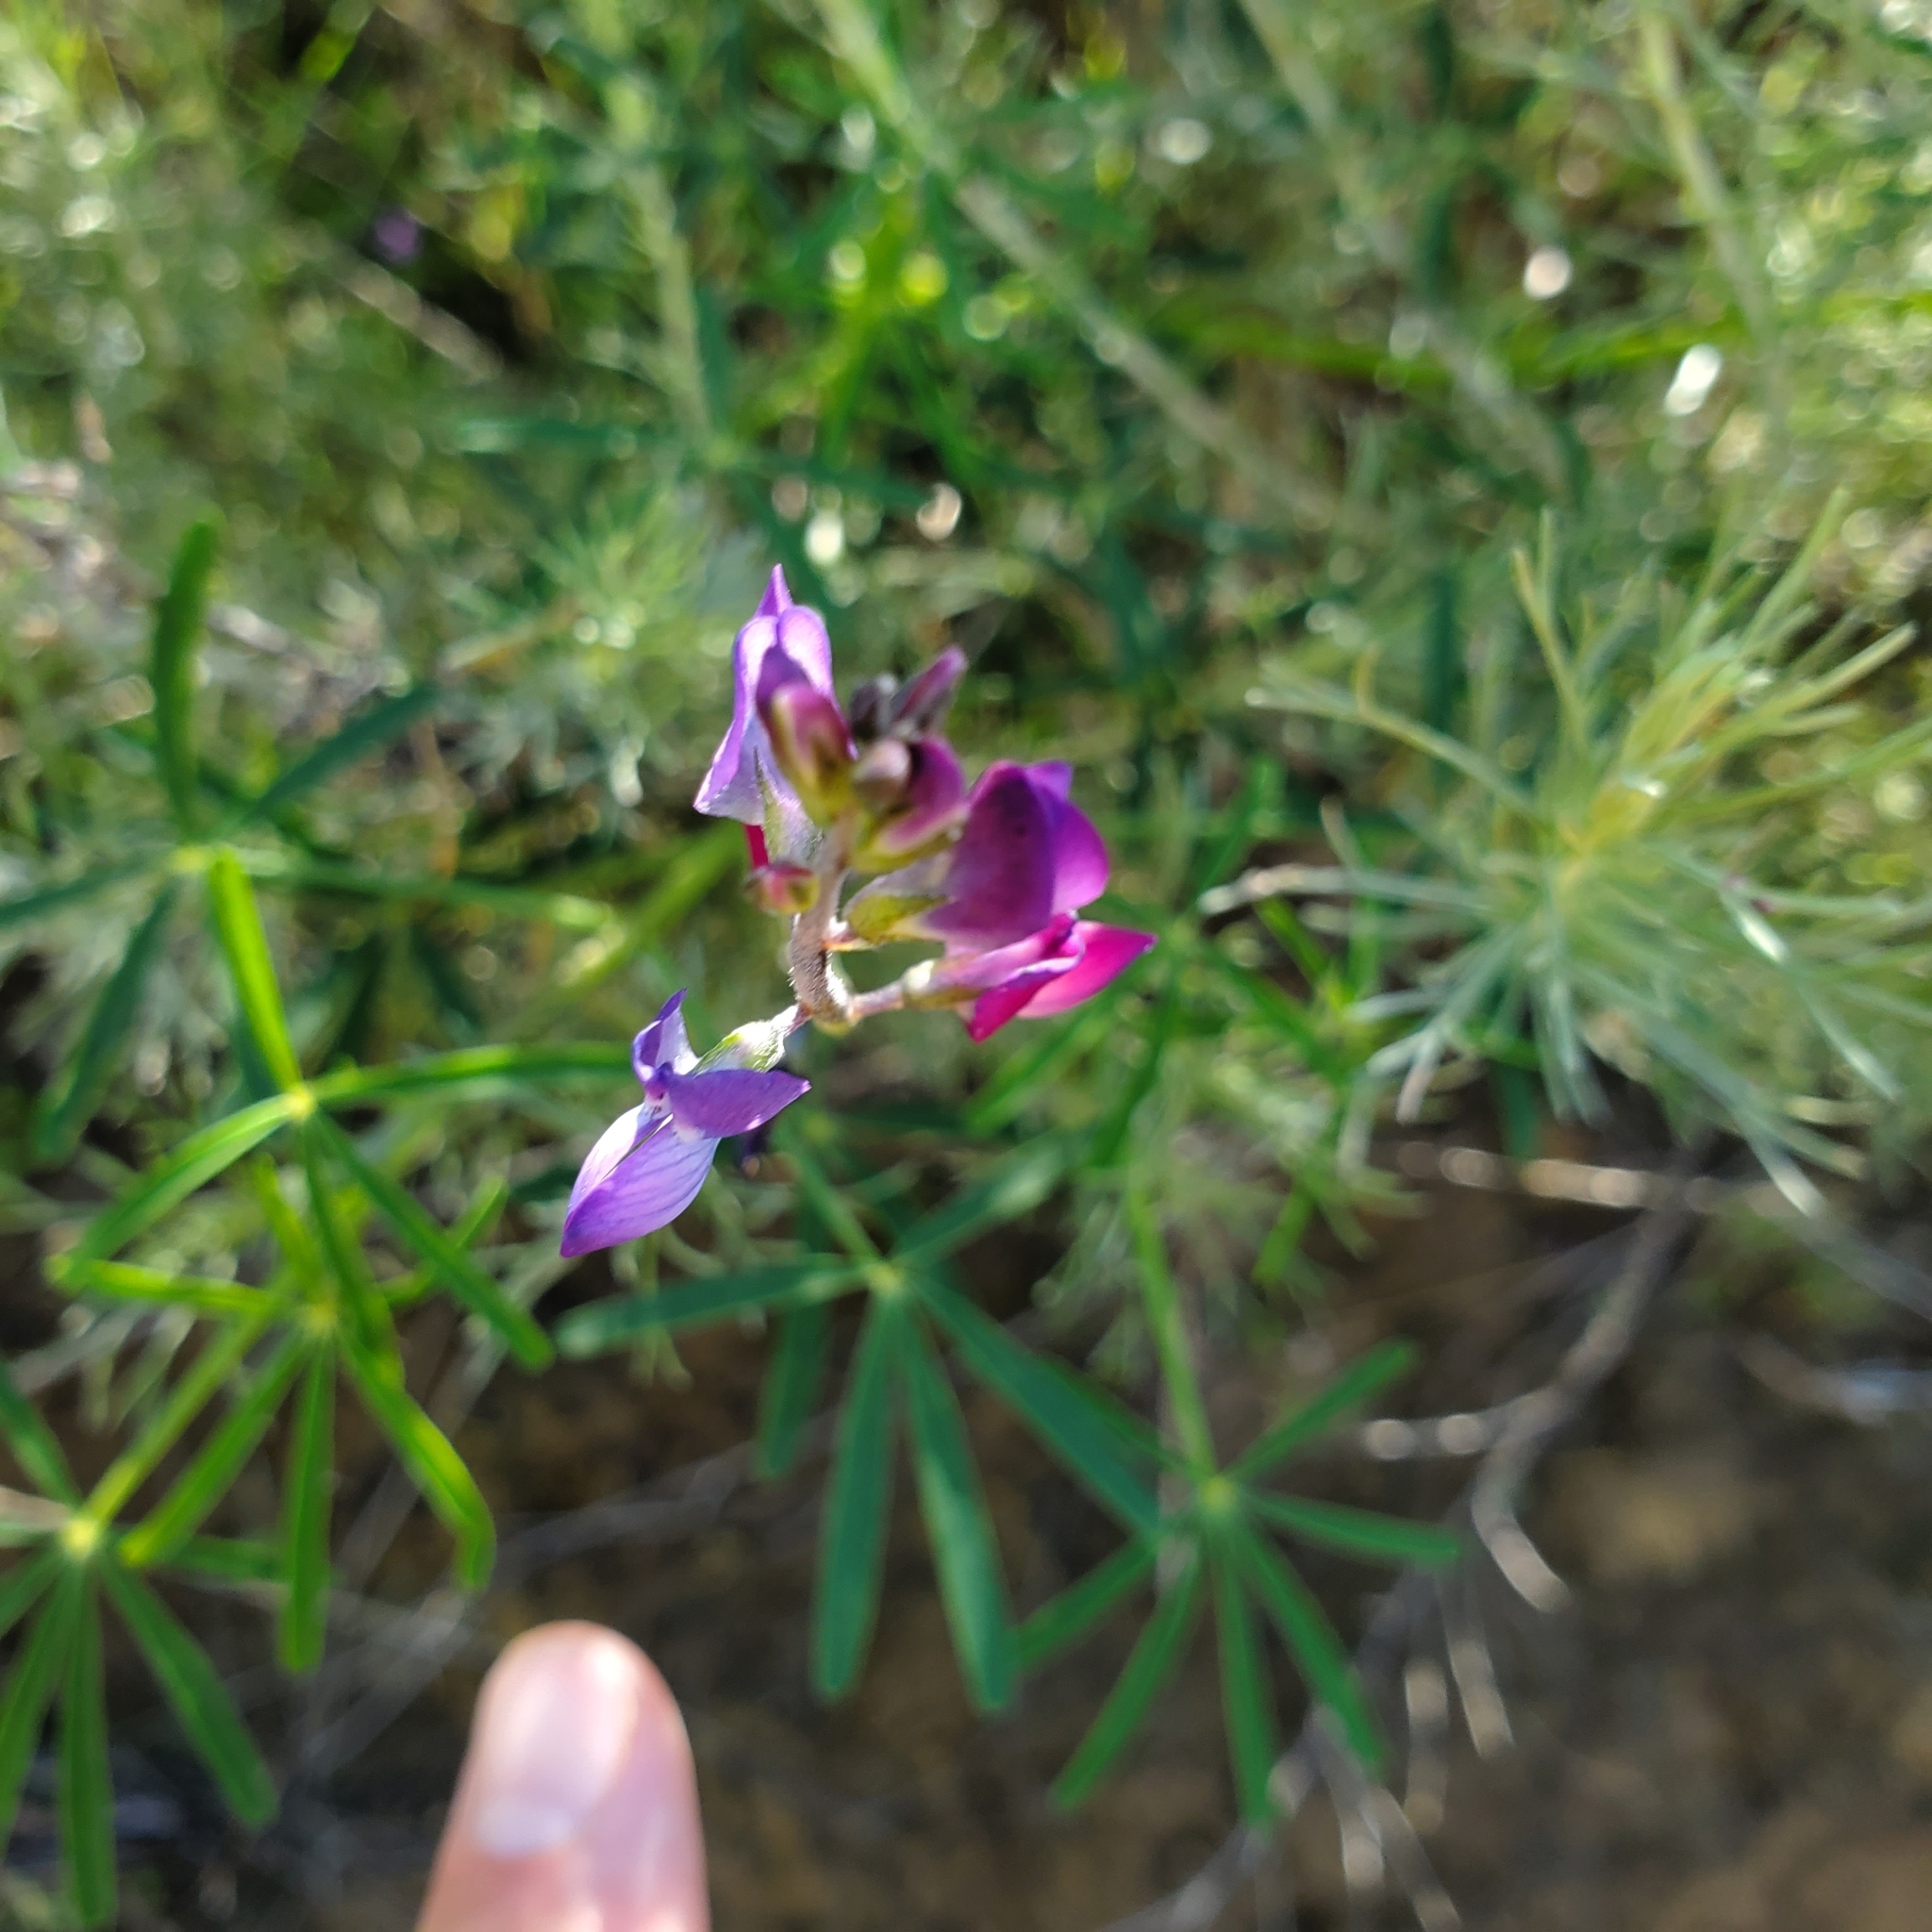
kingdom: Plantae
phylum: Tracheophyta
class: Magnoliopsida
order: Fabales
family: Fabaceae
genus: Lupinus
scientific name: Lupinus truncatus
